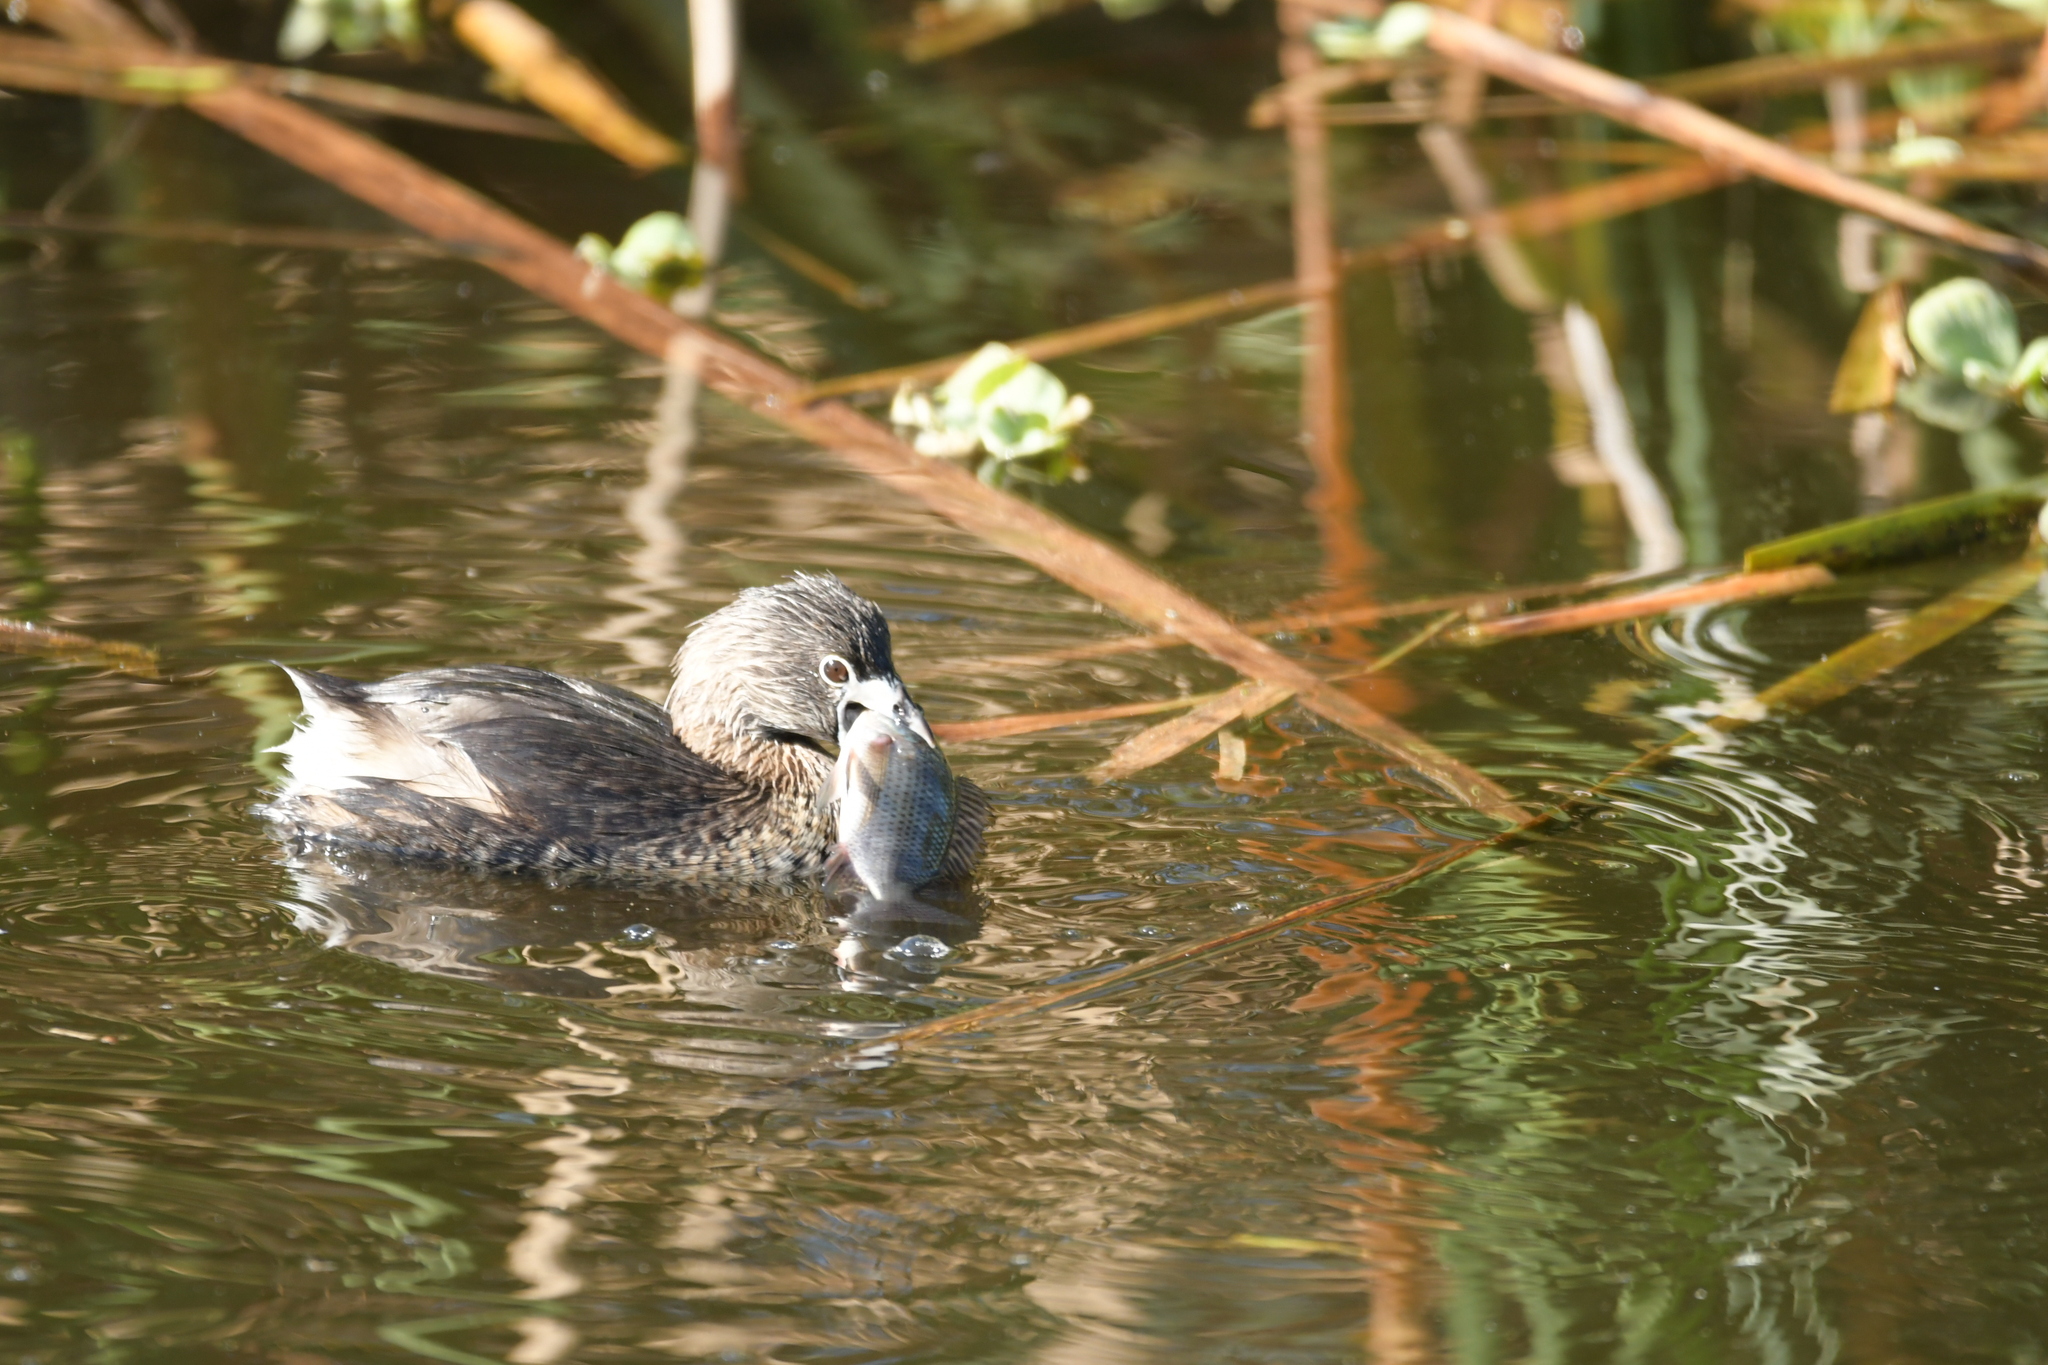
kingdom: Animalia
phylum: Chordata
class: Aves
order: Podicipediformes
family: Podicipedidae
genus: Podilymbus
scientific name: Podilymbus podiceps
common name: Pied-billed grebe
